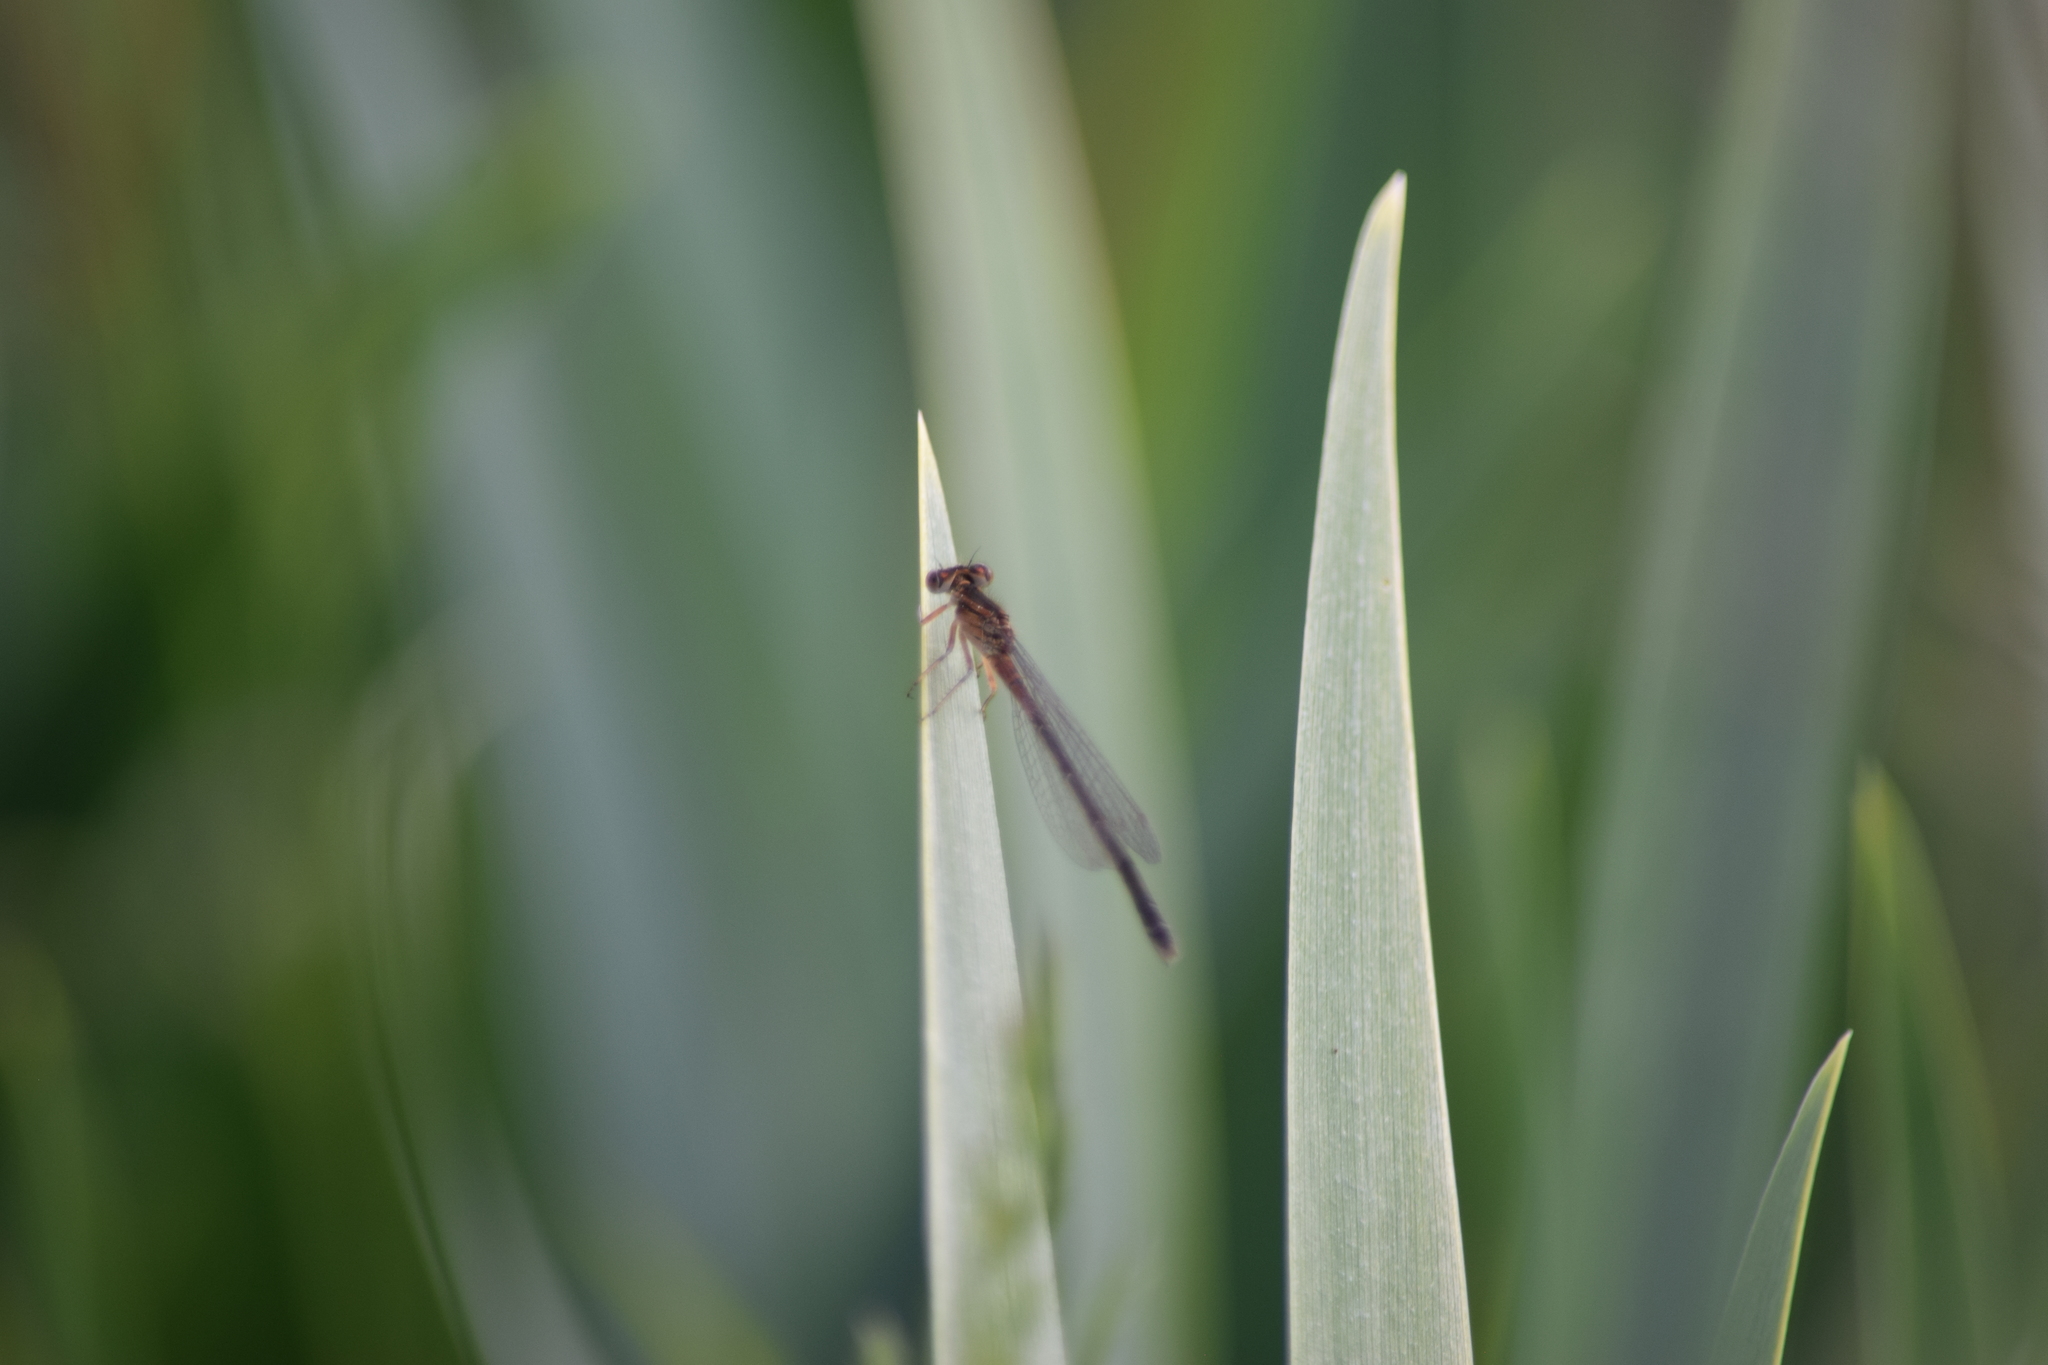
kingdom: Animalia
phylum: Arthropoda
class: Insecta
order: Odonata
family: Coenagrionidae
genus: Ischnura
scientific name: Ischnura verticalis
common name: Eastern forktail
